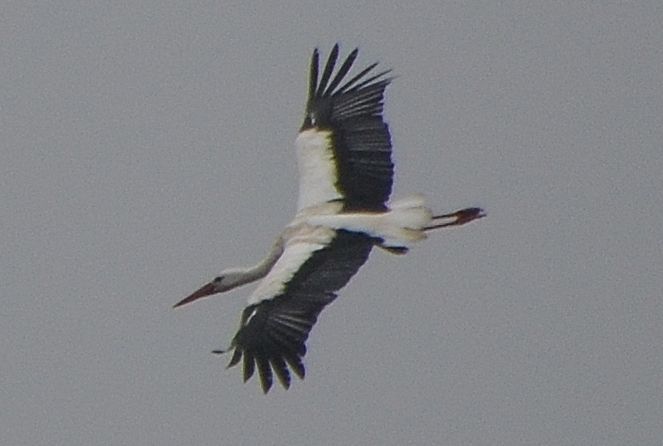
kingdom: Animalia
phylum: Chordata
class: Aves
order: Ciconiiformes
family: Ciconiidae
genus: Ciconia
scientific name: Ciconia ciconia
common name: White stork
